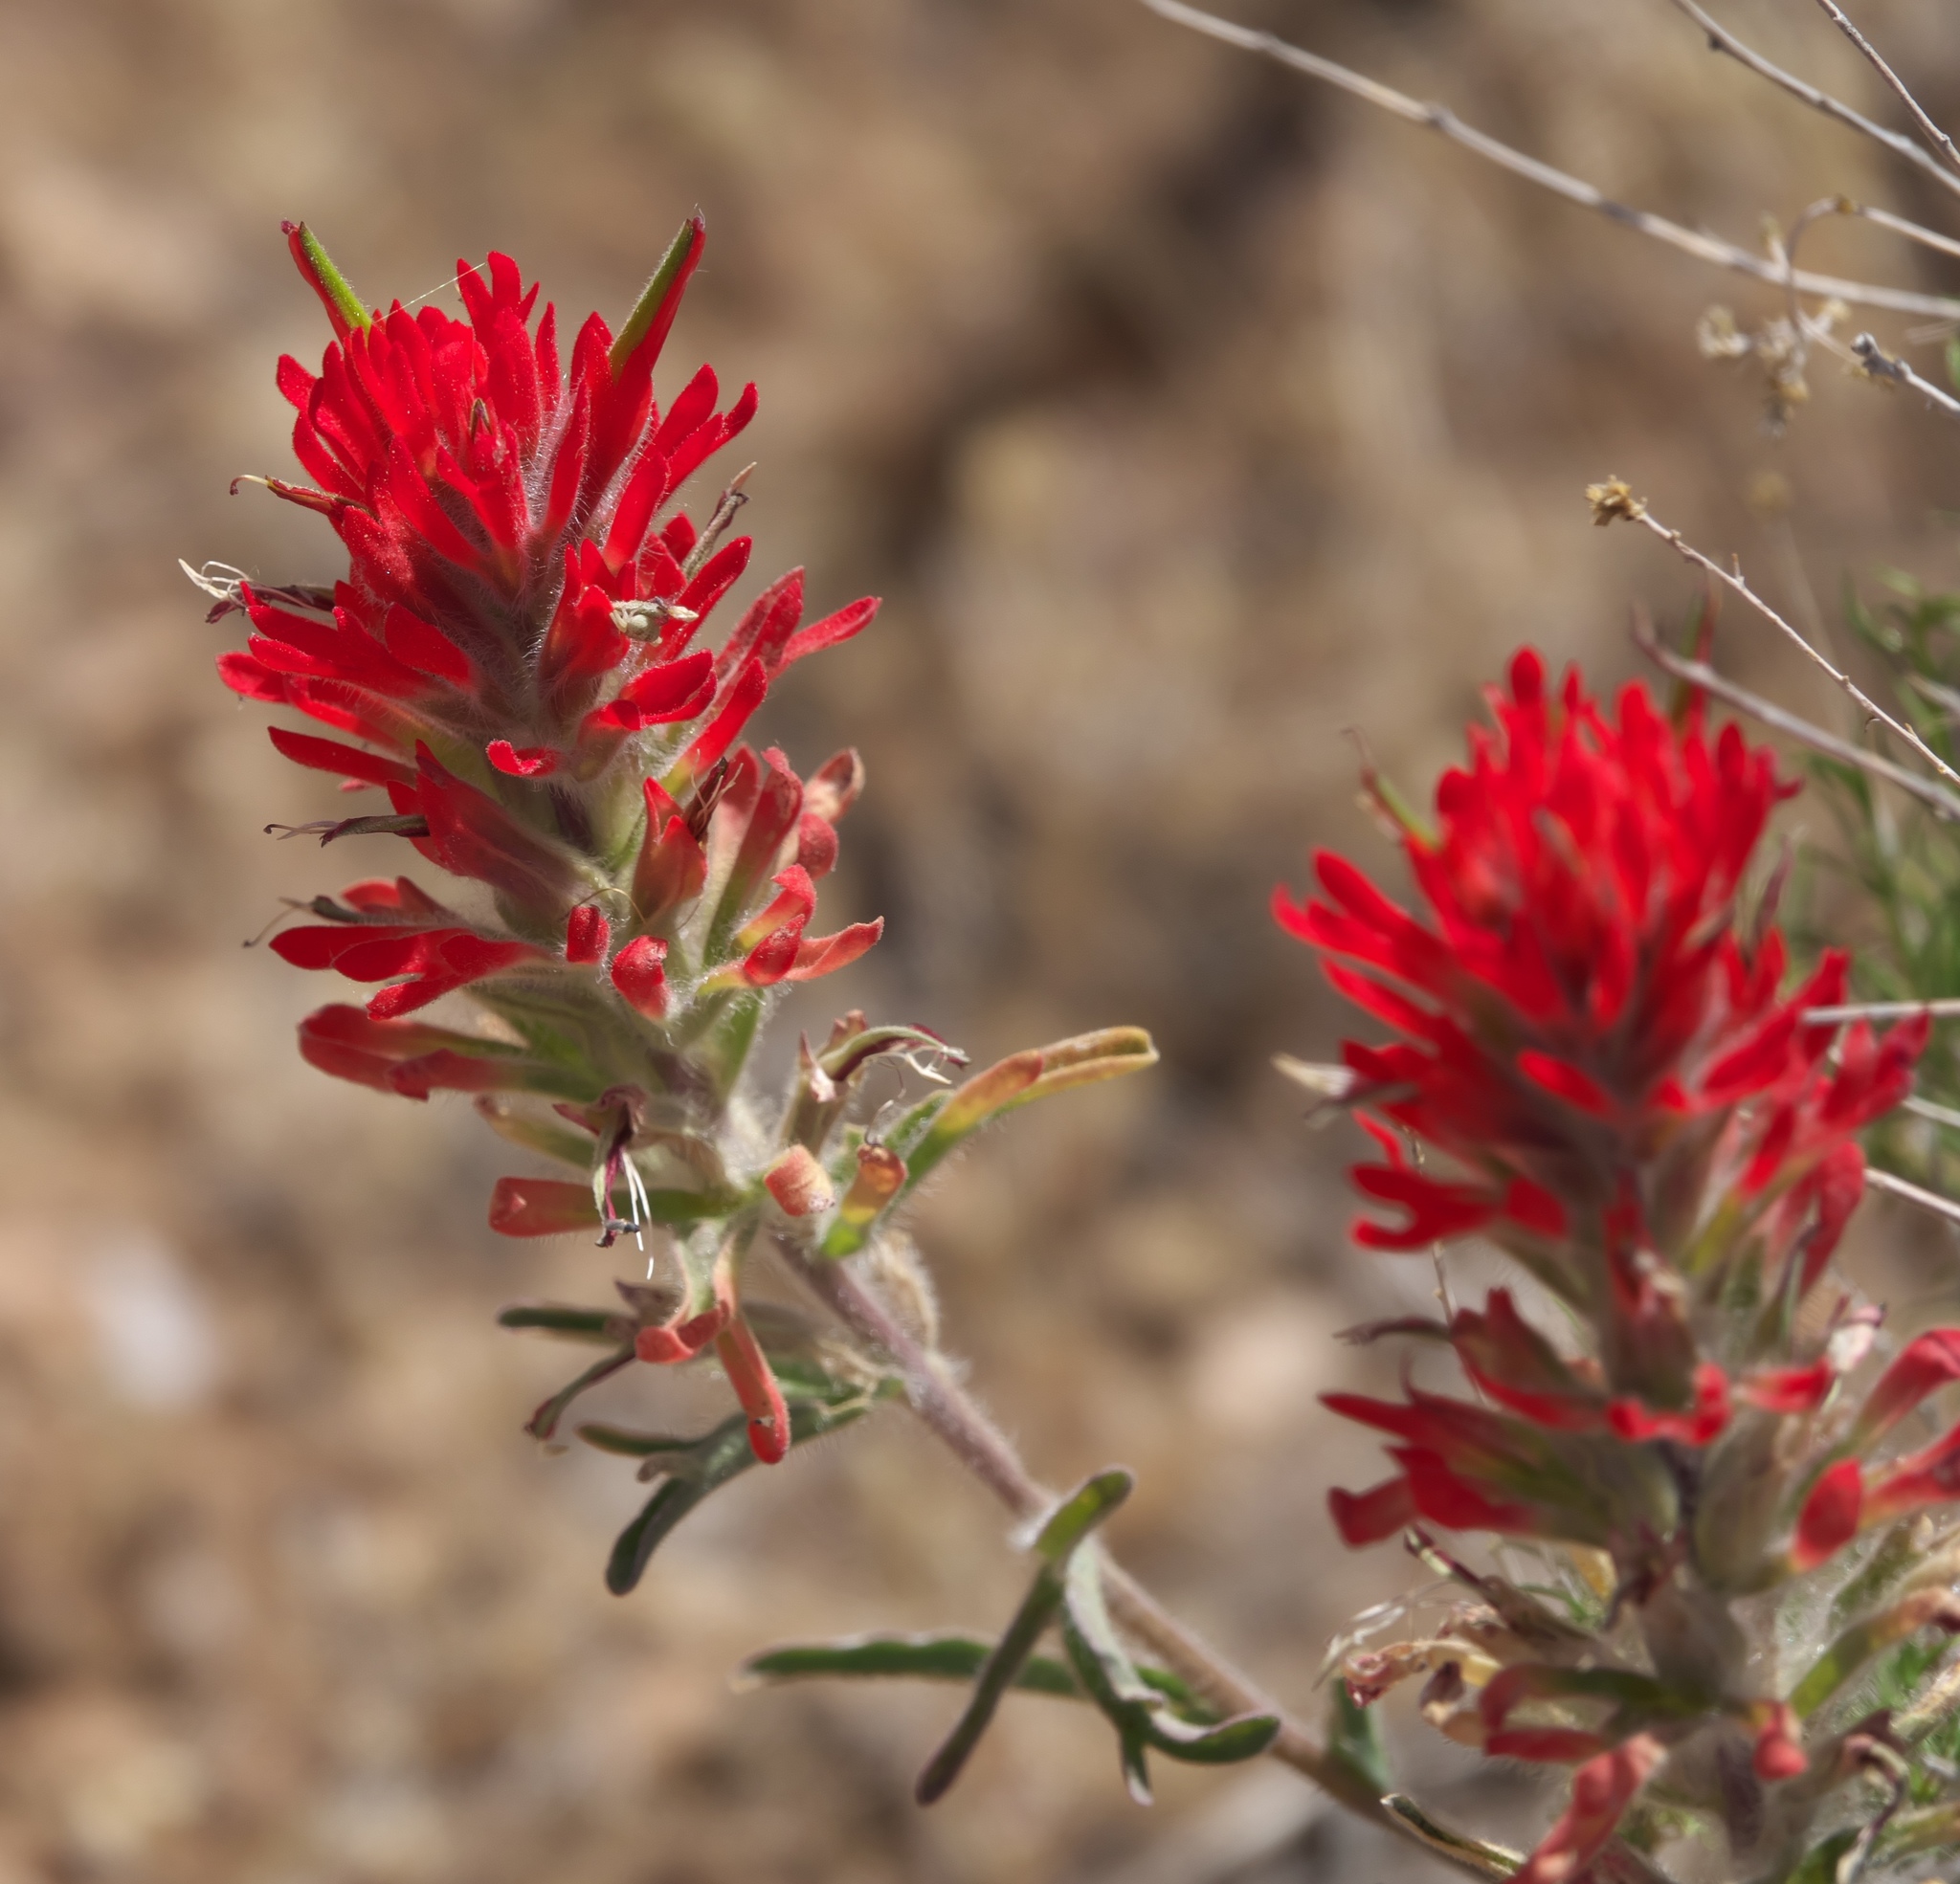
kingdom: Plantae
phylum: Tracheophyta
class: Magnoliopsida
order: Lamiales
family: Orobanchaceae
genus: Castilleja
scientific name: Castilleja chromosa
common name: Desert paintbrush
